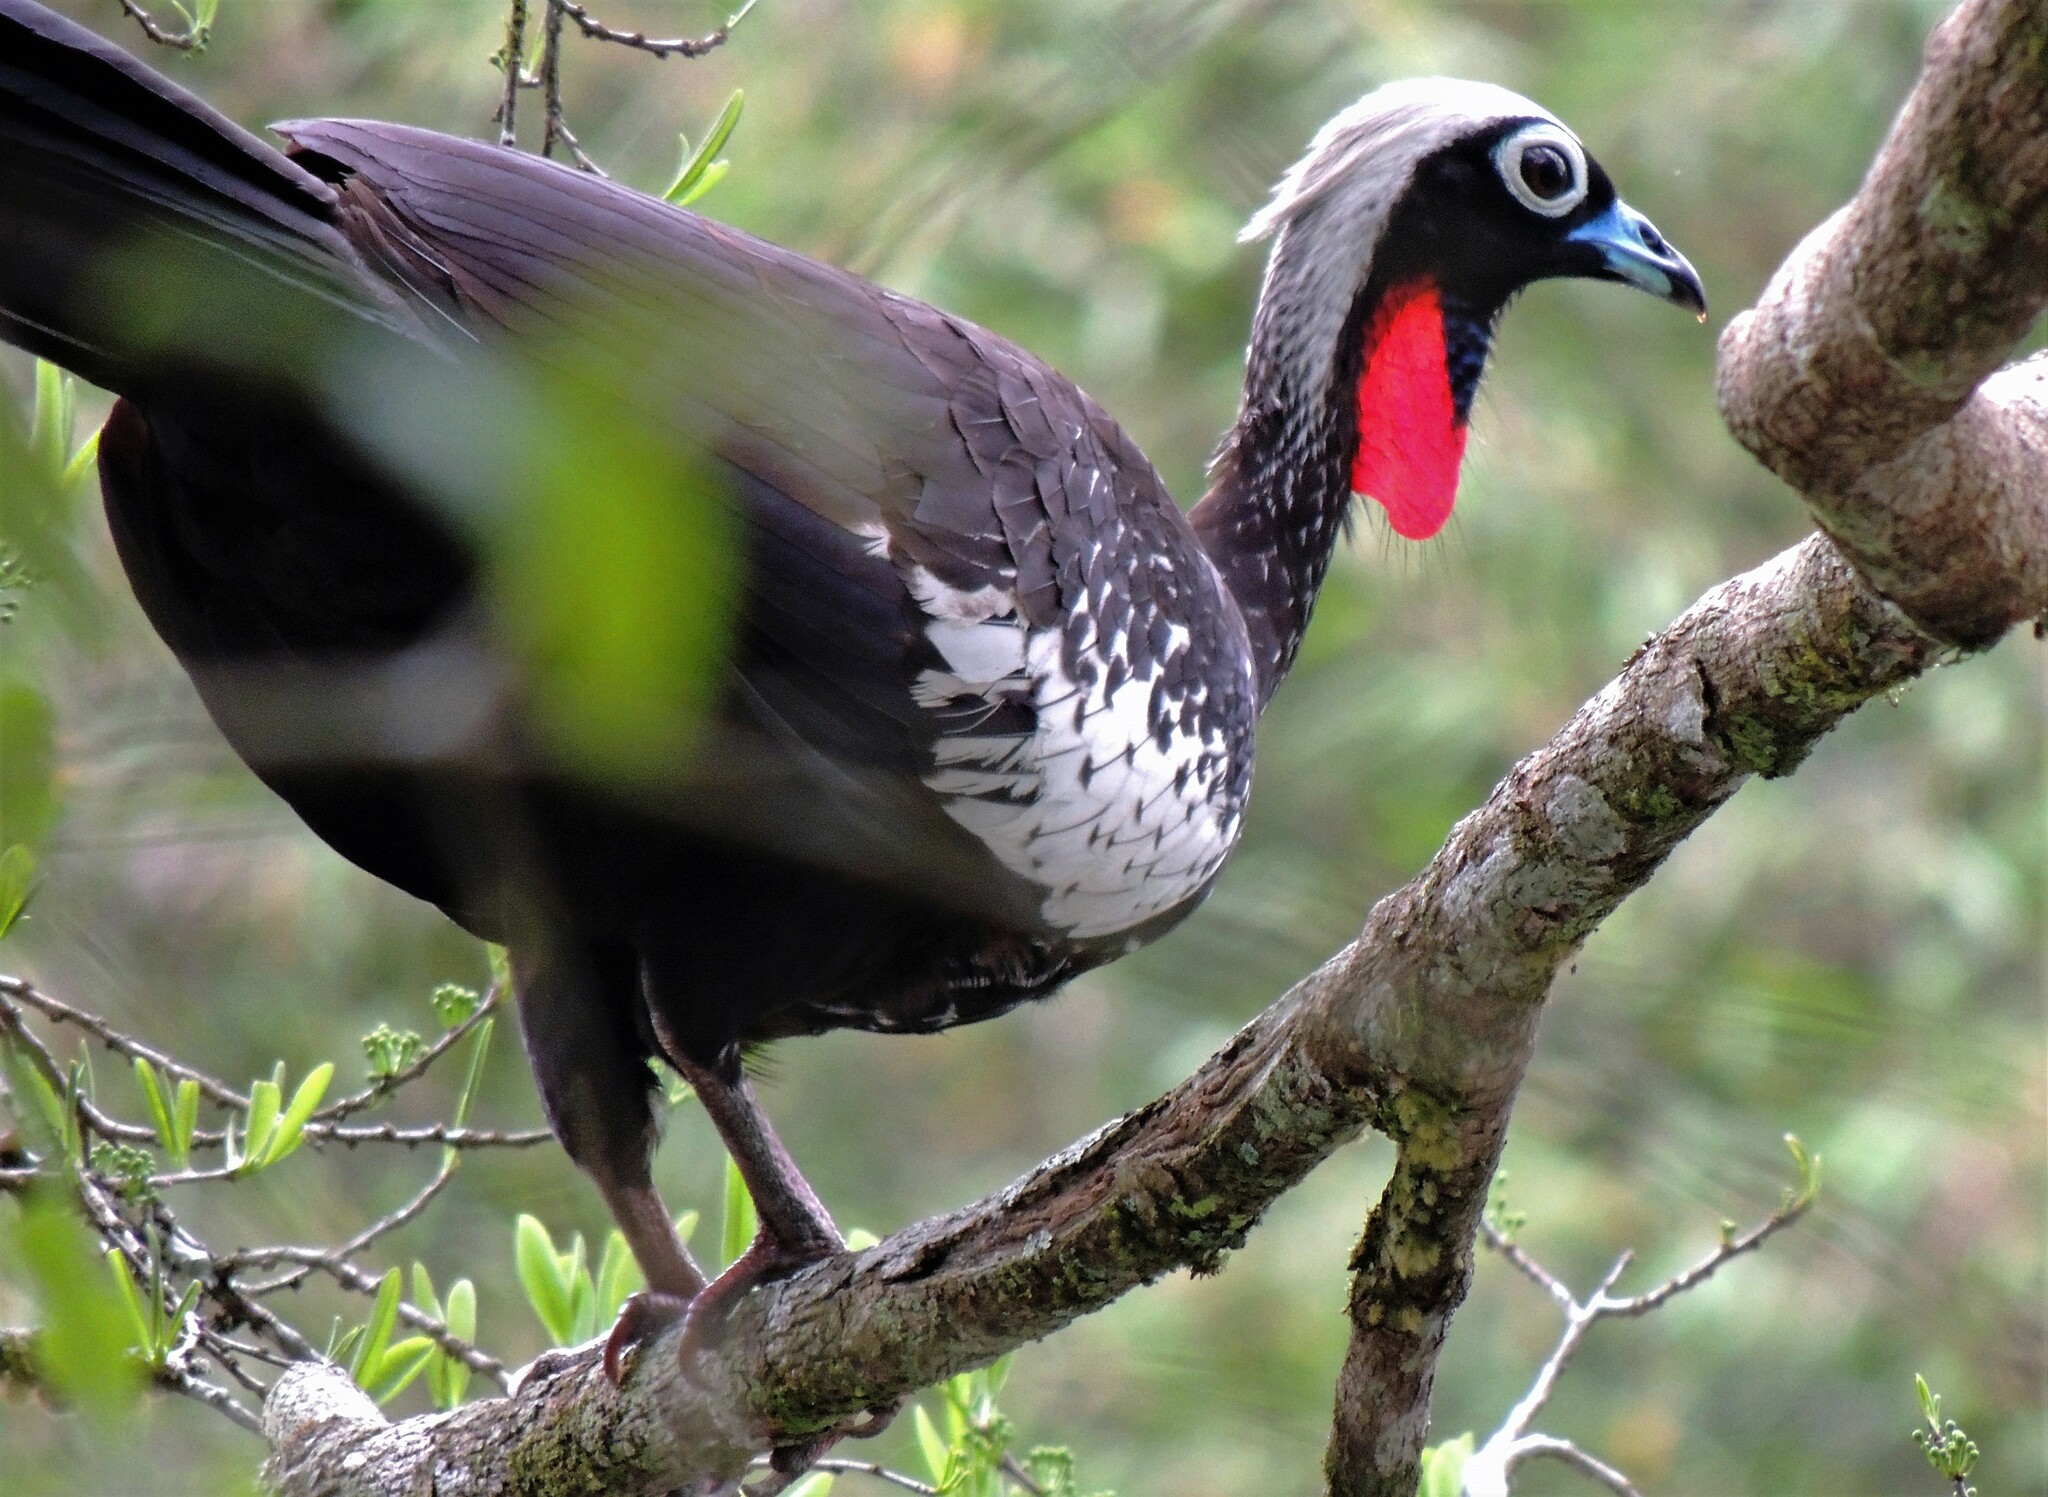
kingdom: Animalia
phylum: Chordata
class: Aves
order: Galliformes
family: Cracidae
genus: Pipile
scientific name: Pipile jacutinga
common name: Black-fronted piping-guan
